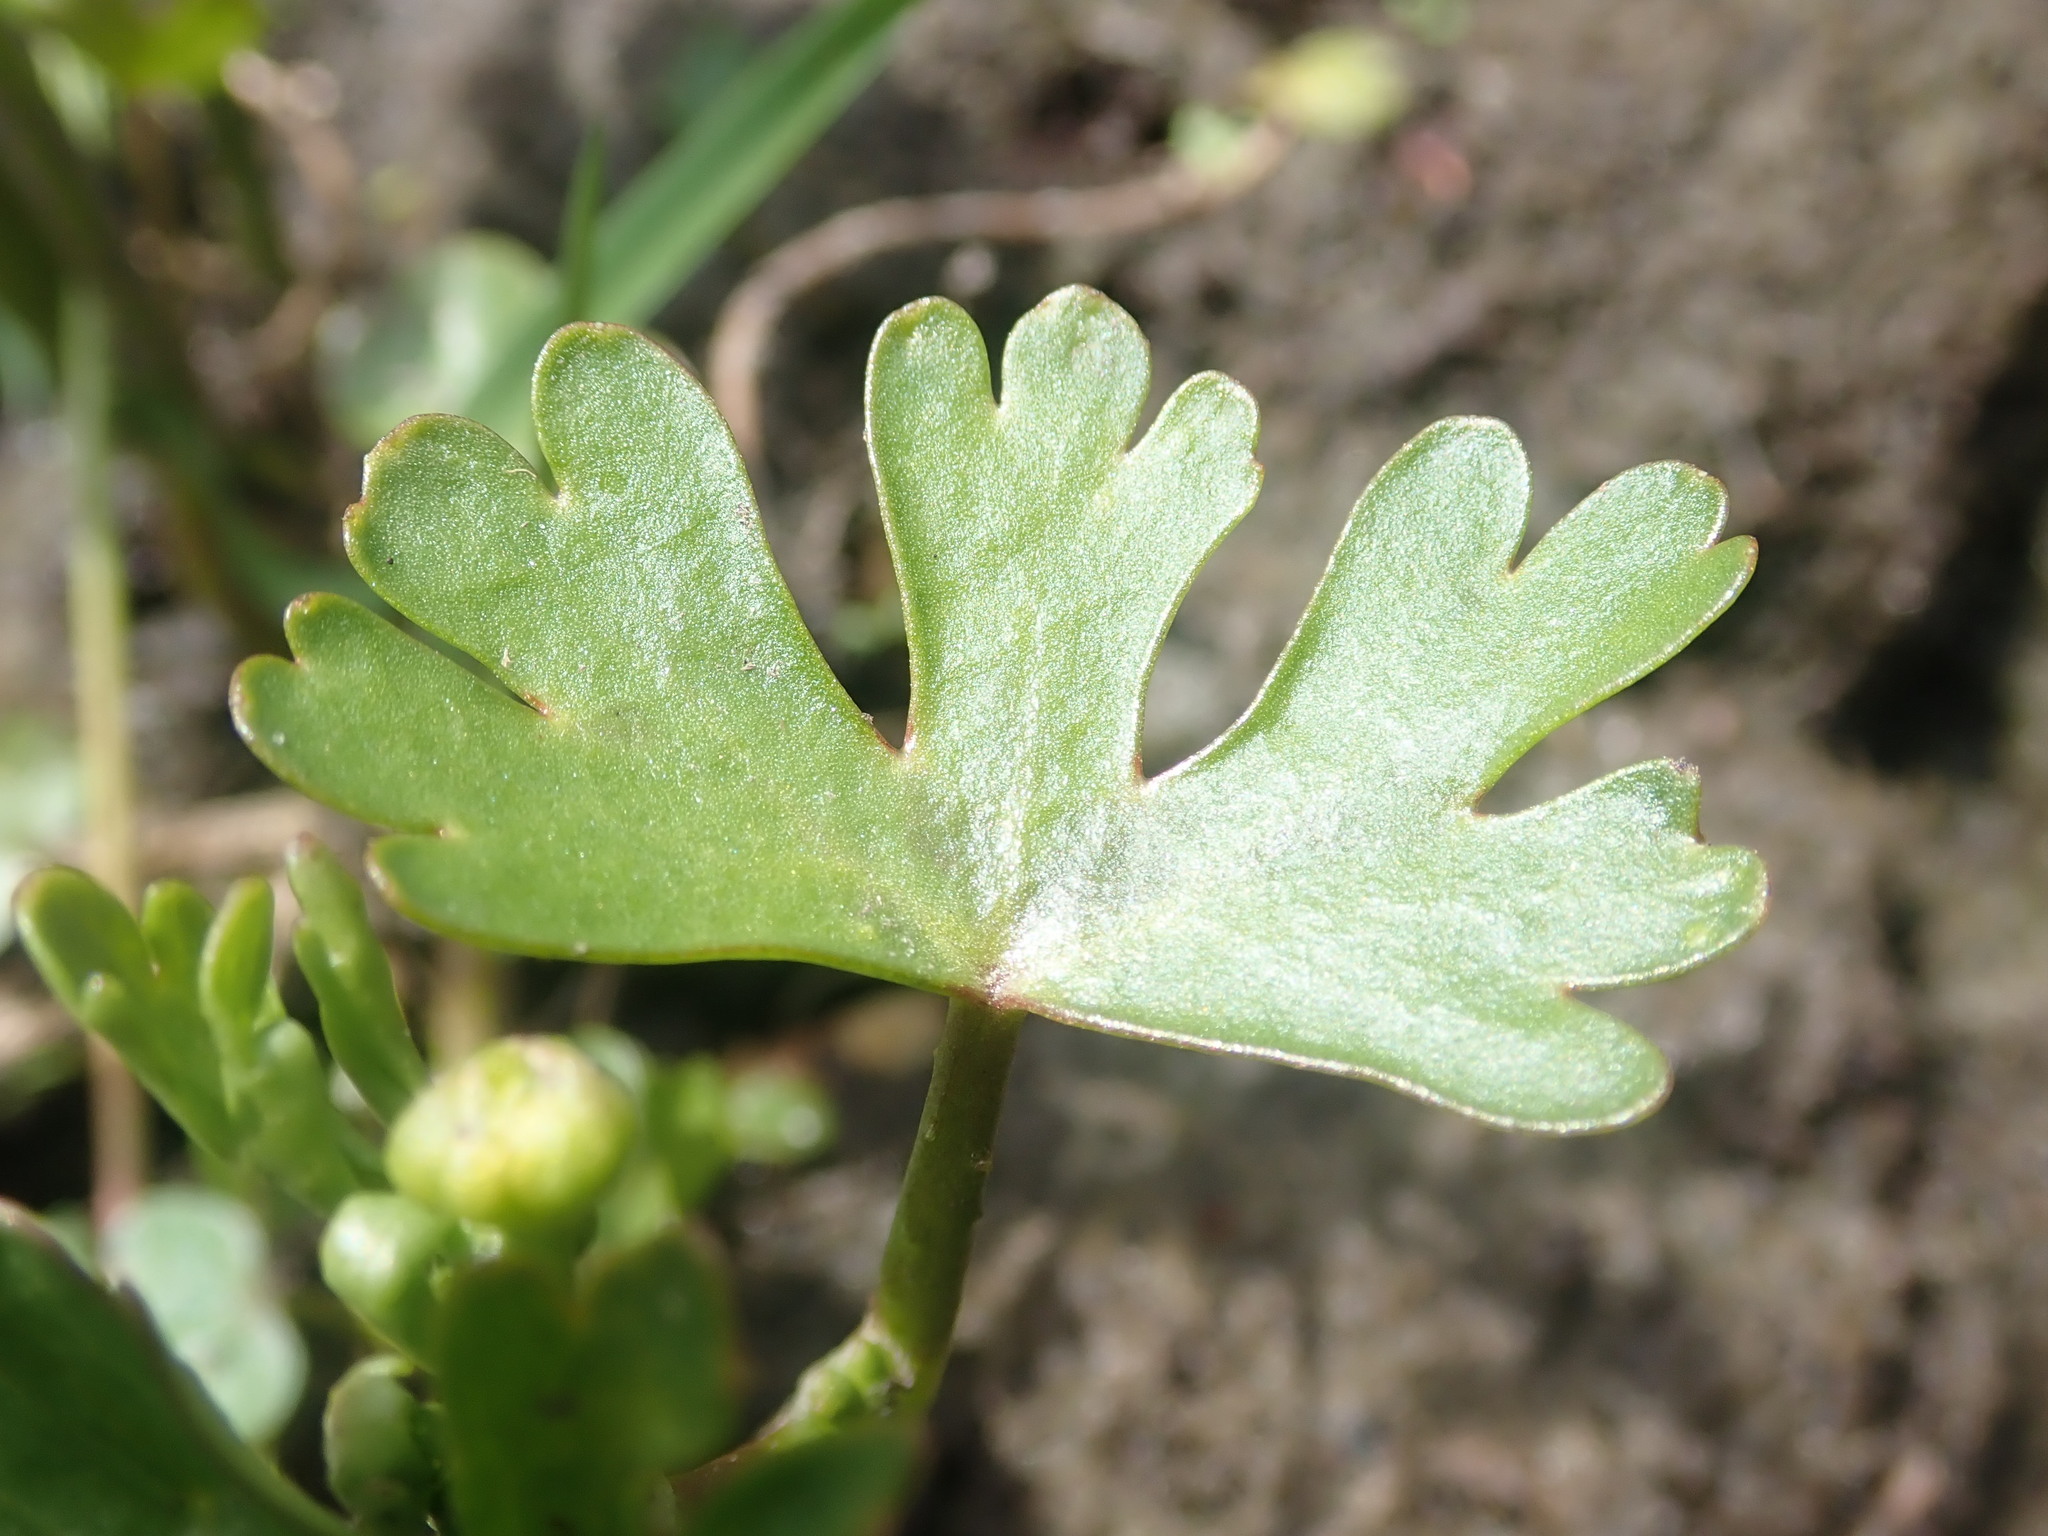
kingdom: Plantae
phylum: Tracheophyta
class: Magnoliopsida
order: Ranunculales
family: Ranunculaceae
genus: Ranunculus
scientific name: Ranunculus sceleratus
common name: Celery-leaved buttercup
